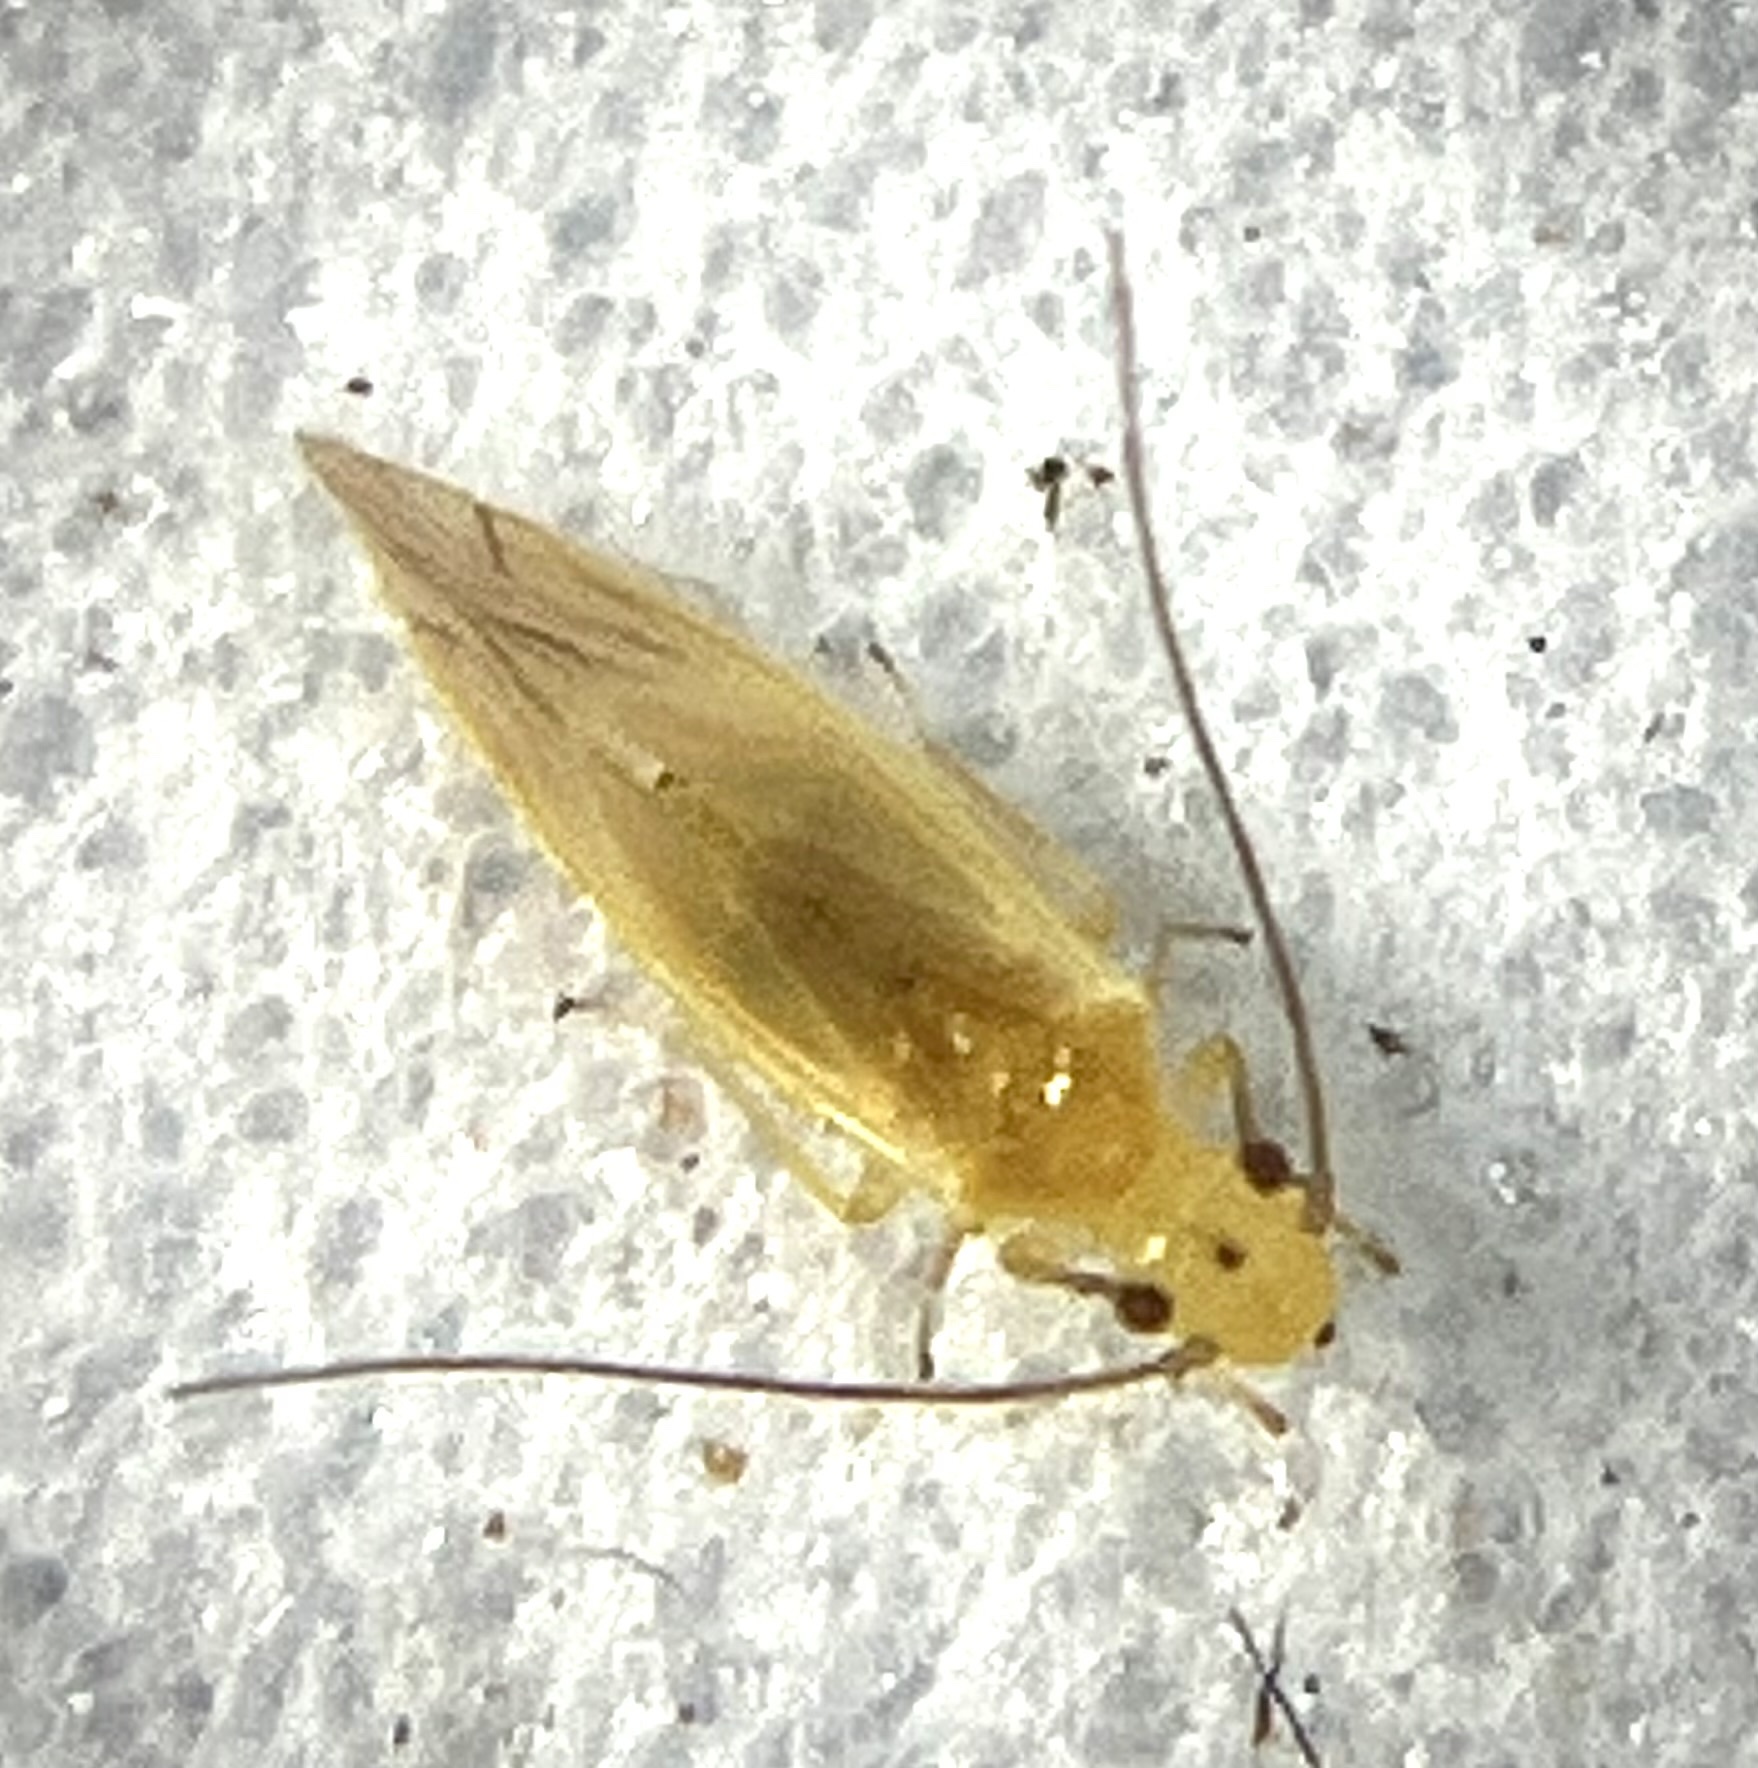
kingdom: Animalia
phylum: Arthropoda
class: Insecta
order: Psocodea
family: Caeciliusidae
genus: Valenzuela
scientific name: Valenzuela flavidus
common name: Yellow barklouse
